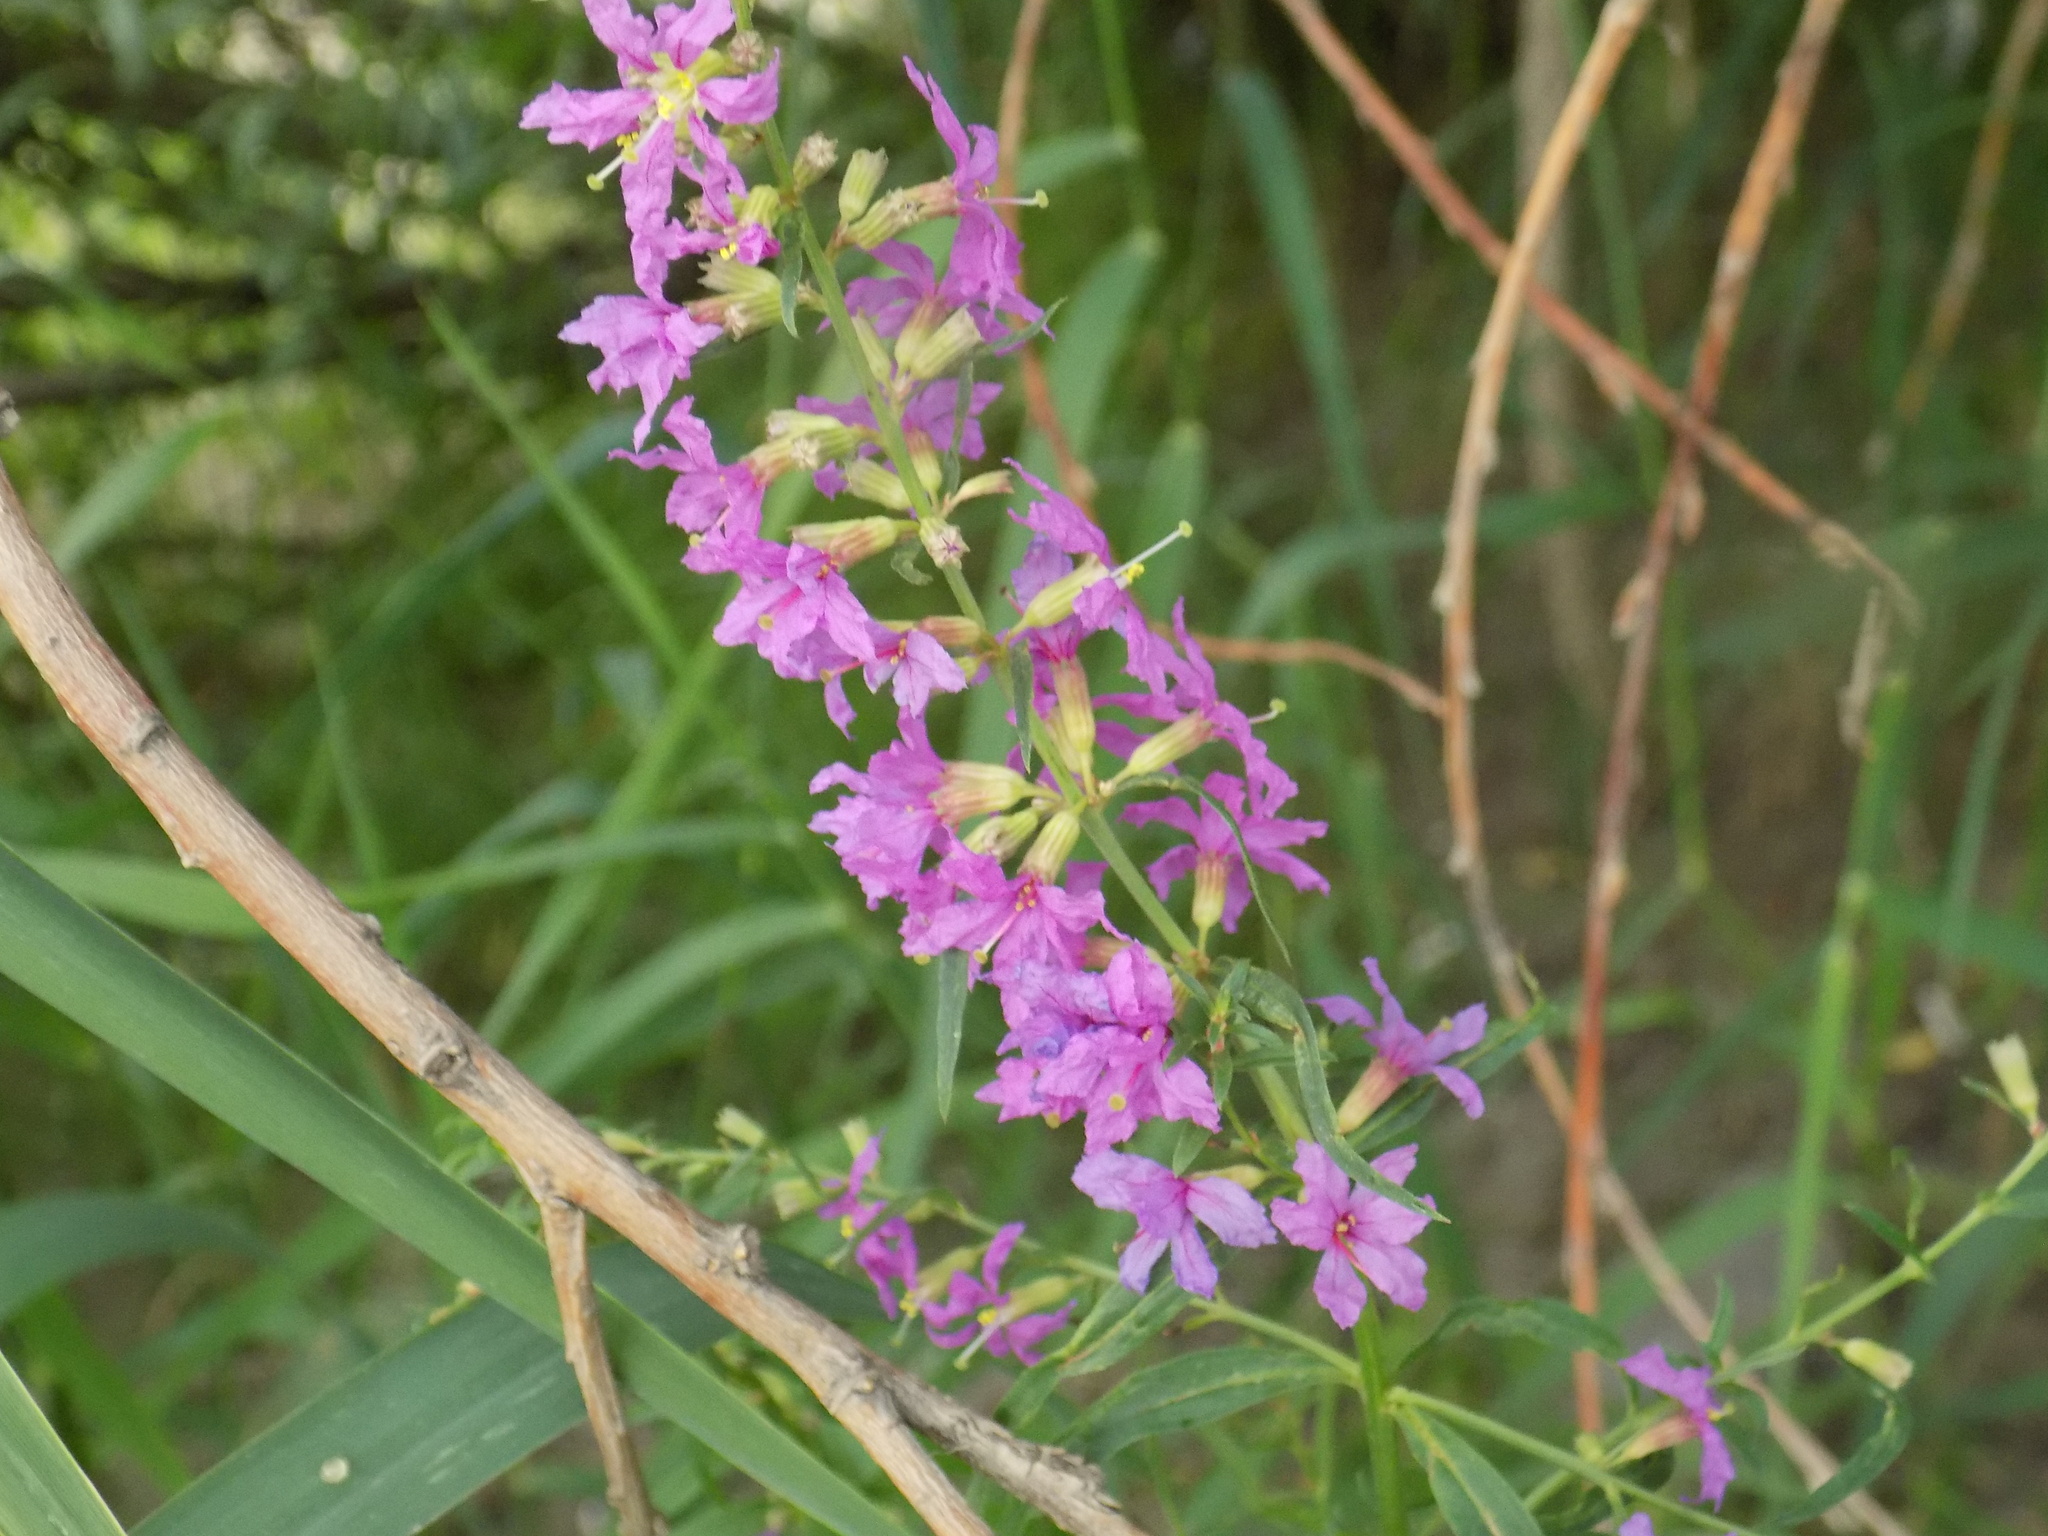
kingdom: Plantae
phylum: Tracheophyta
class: Magnoliopsida
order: Myrtales
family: Lythraceae
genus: Lythrum
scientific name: Lythrum virgatum
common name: European wand loosestrife
